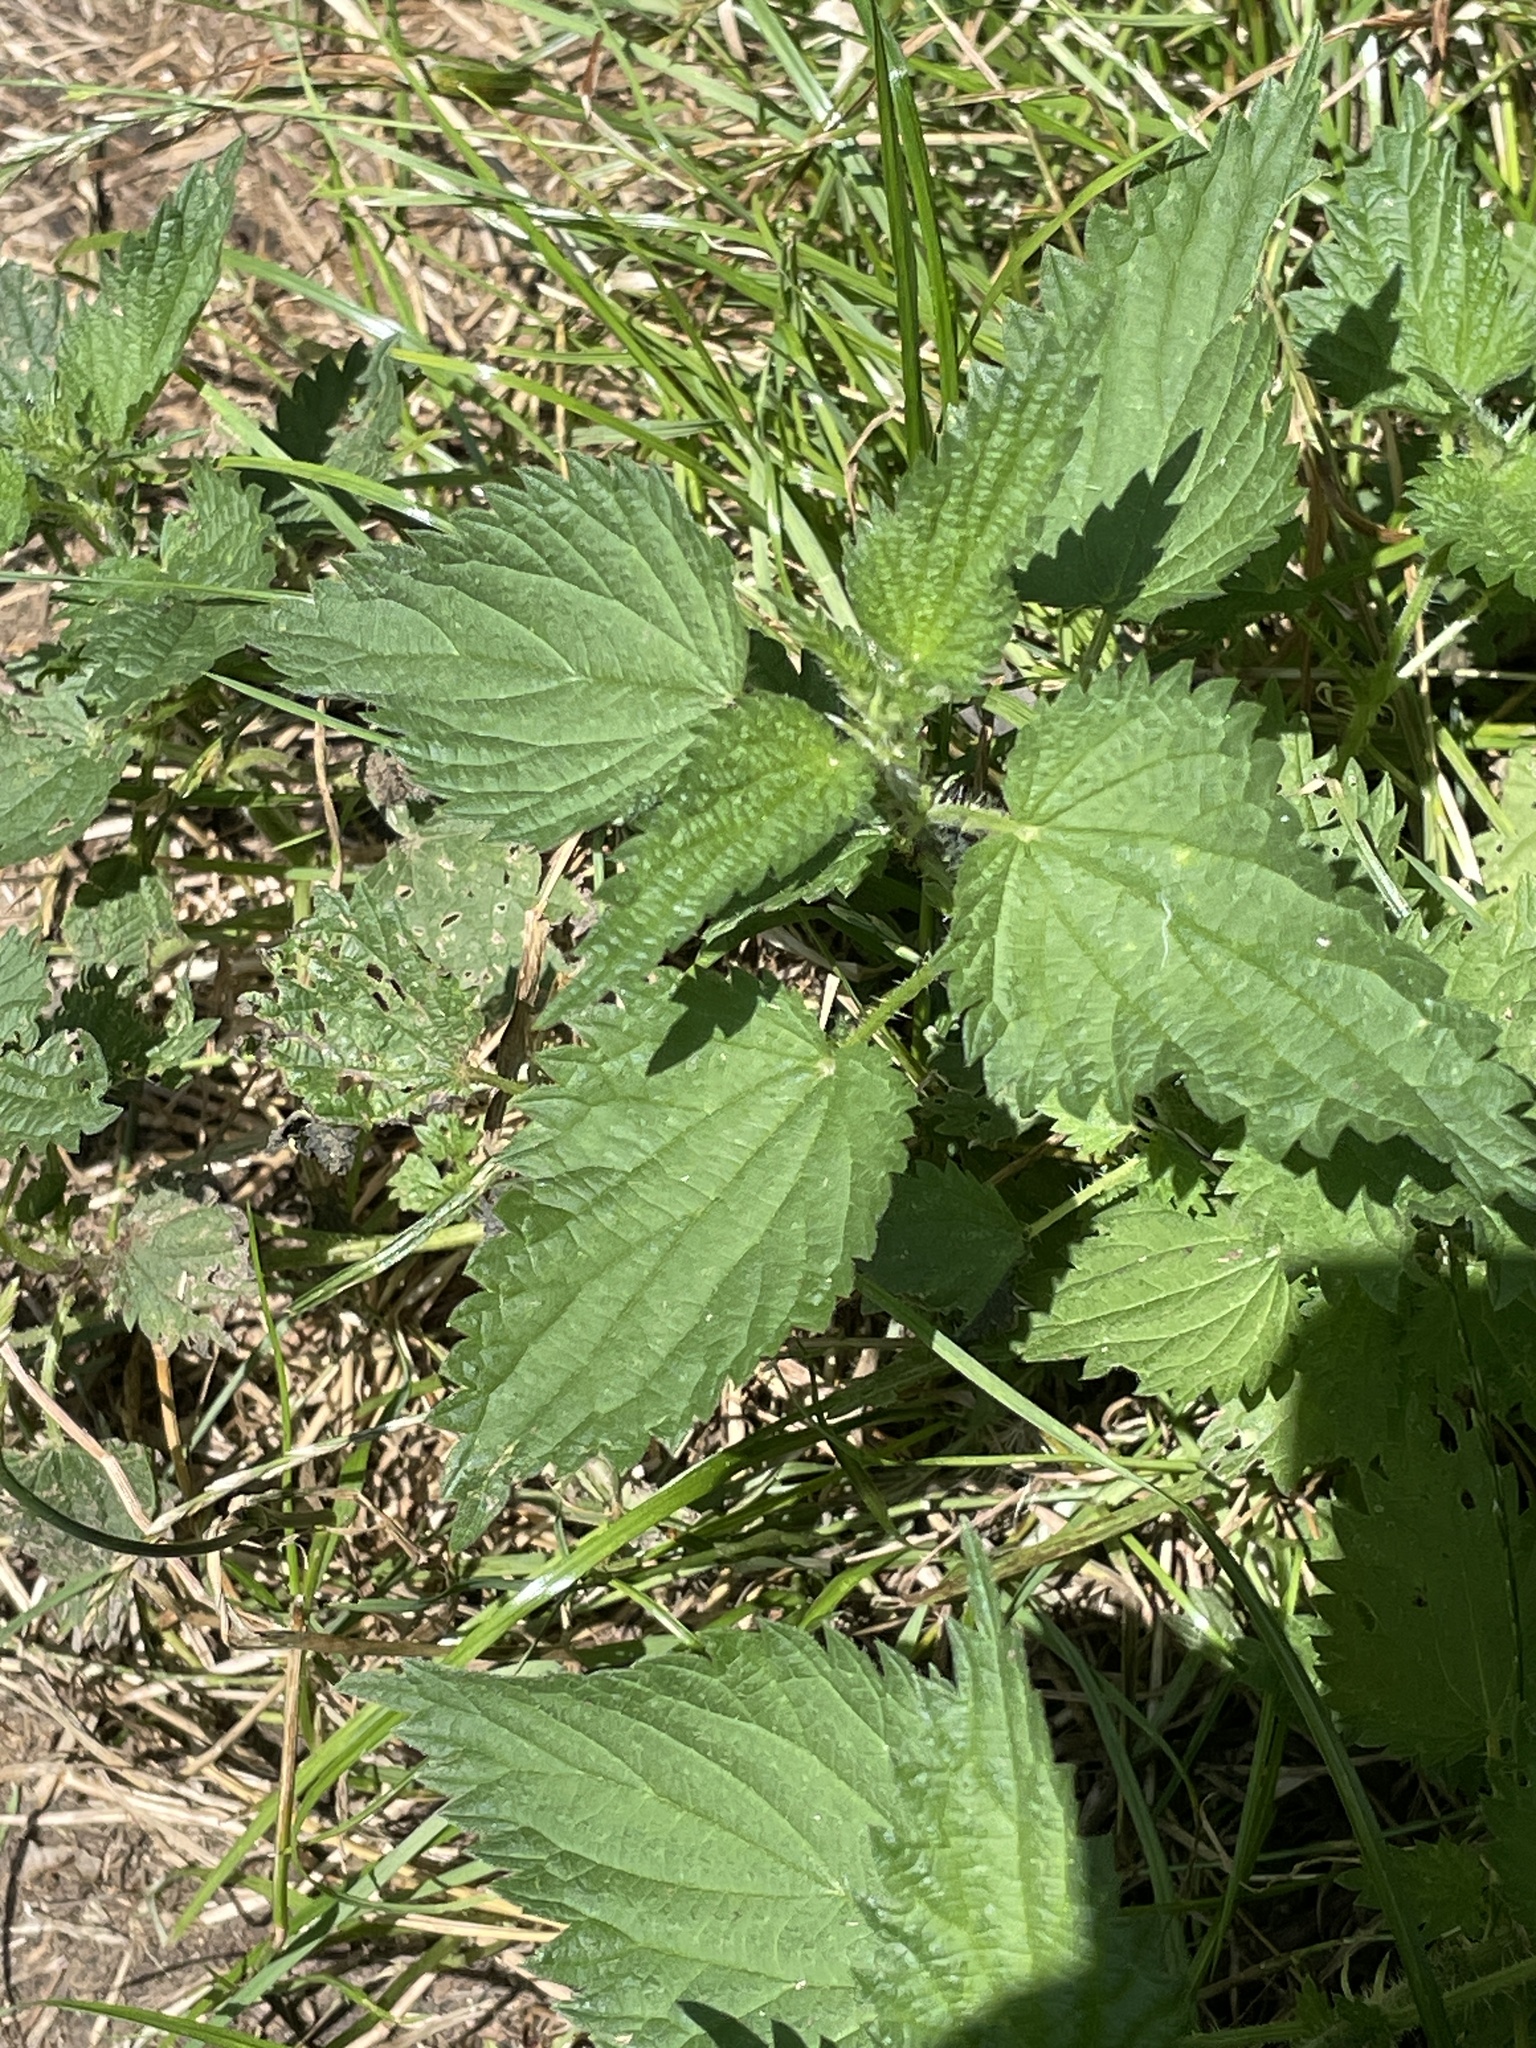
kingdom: Plantae
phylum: Tracheophyta
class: Magnoliopsida
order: Rosales
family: Urticaceae
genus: Urtica
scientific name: Urtica dioica
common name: Common nettle
